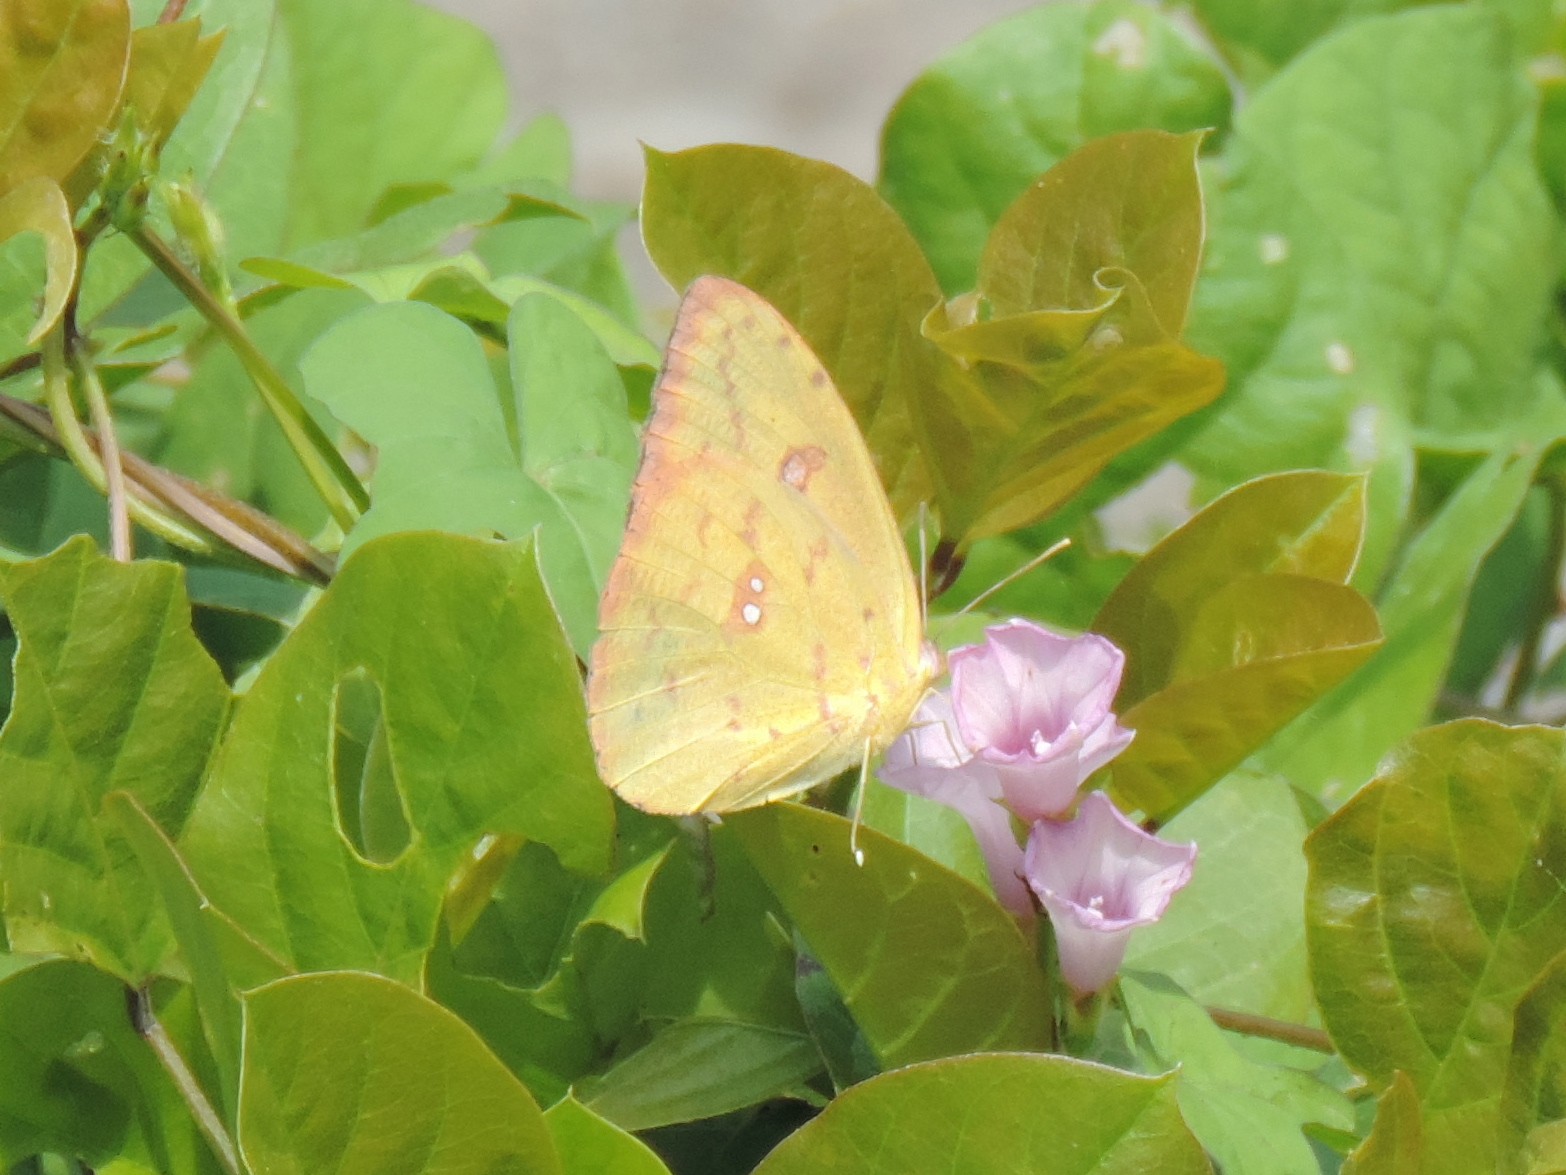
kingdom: Animalia
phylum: Arthropoda
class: Insecta
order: Lepidoptera
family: Pieridae
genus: Phoebis
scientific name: Phoebis
